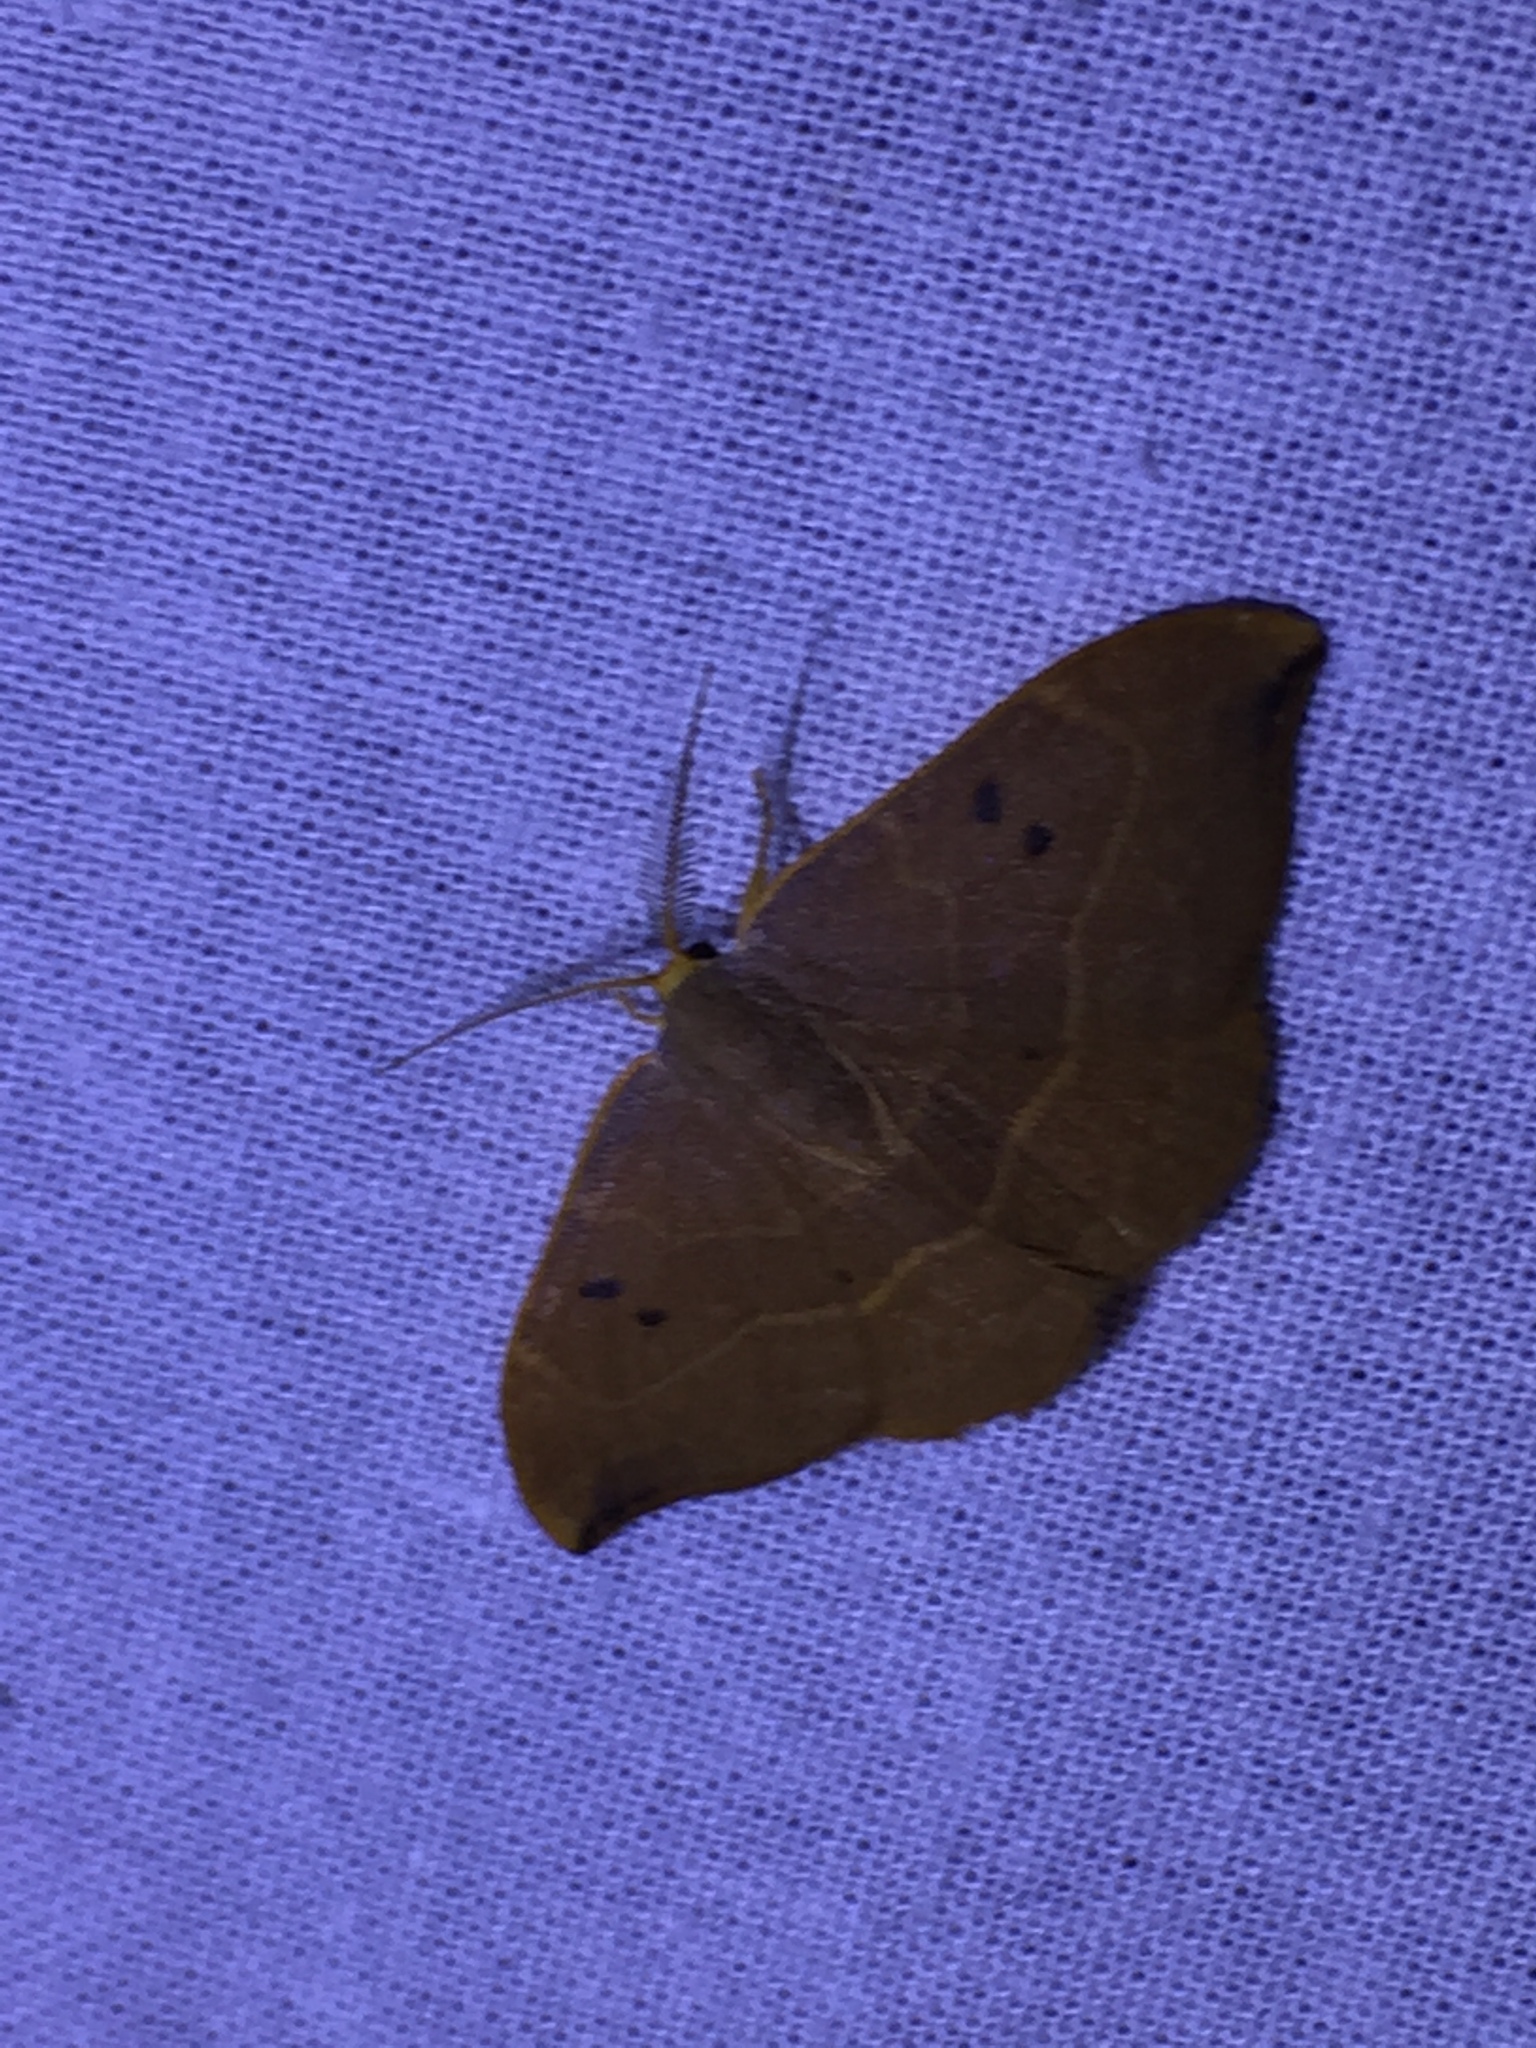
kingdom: Animalia
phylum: Arthropoda
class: Insecta
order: Lepidoptera
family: Drepanidae
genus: Watsonalla
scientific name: Watsonalla binaria
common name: Oak hook-tip
